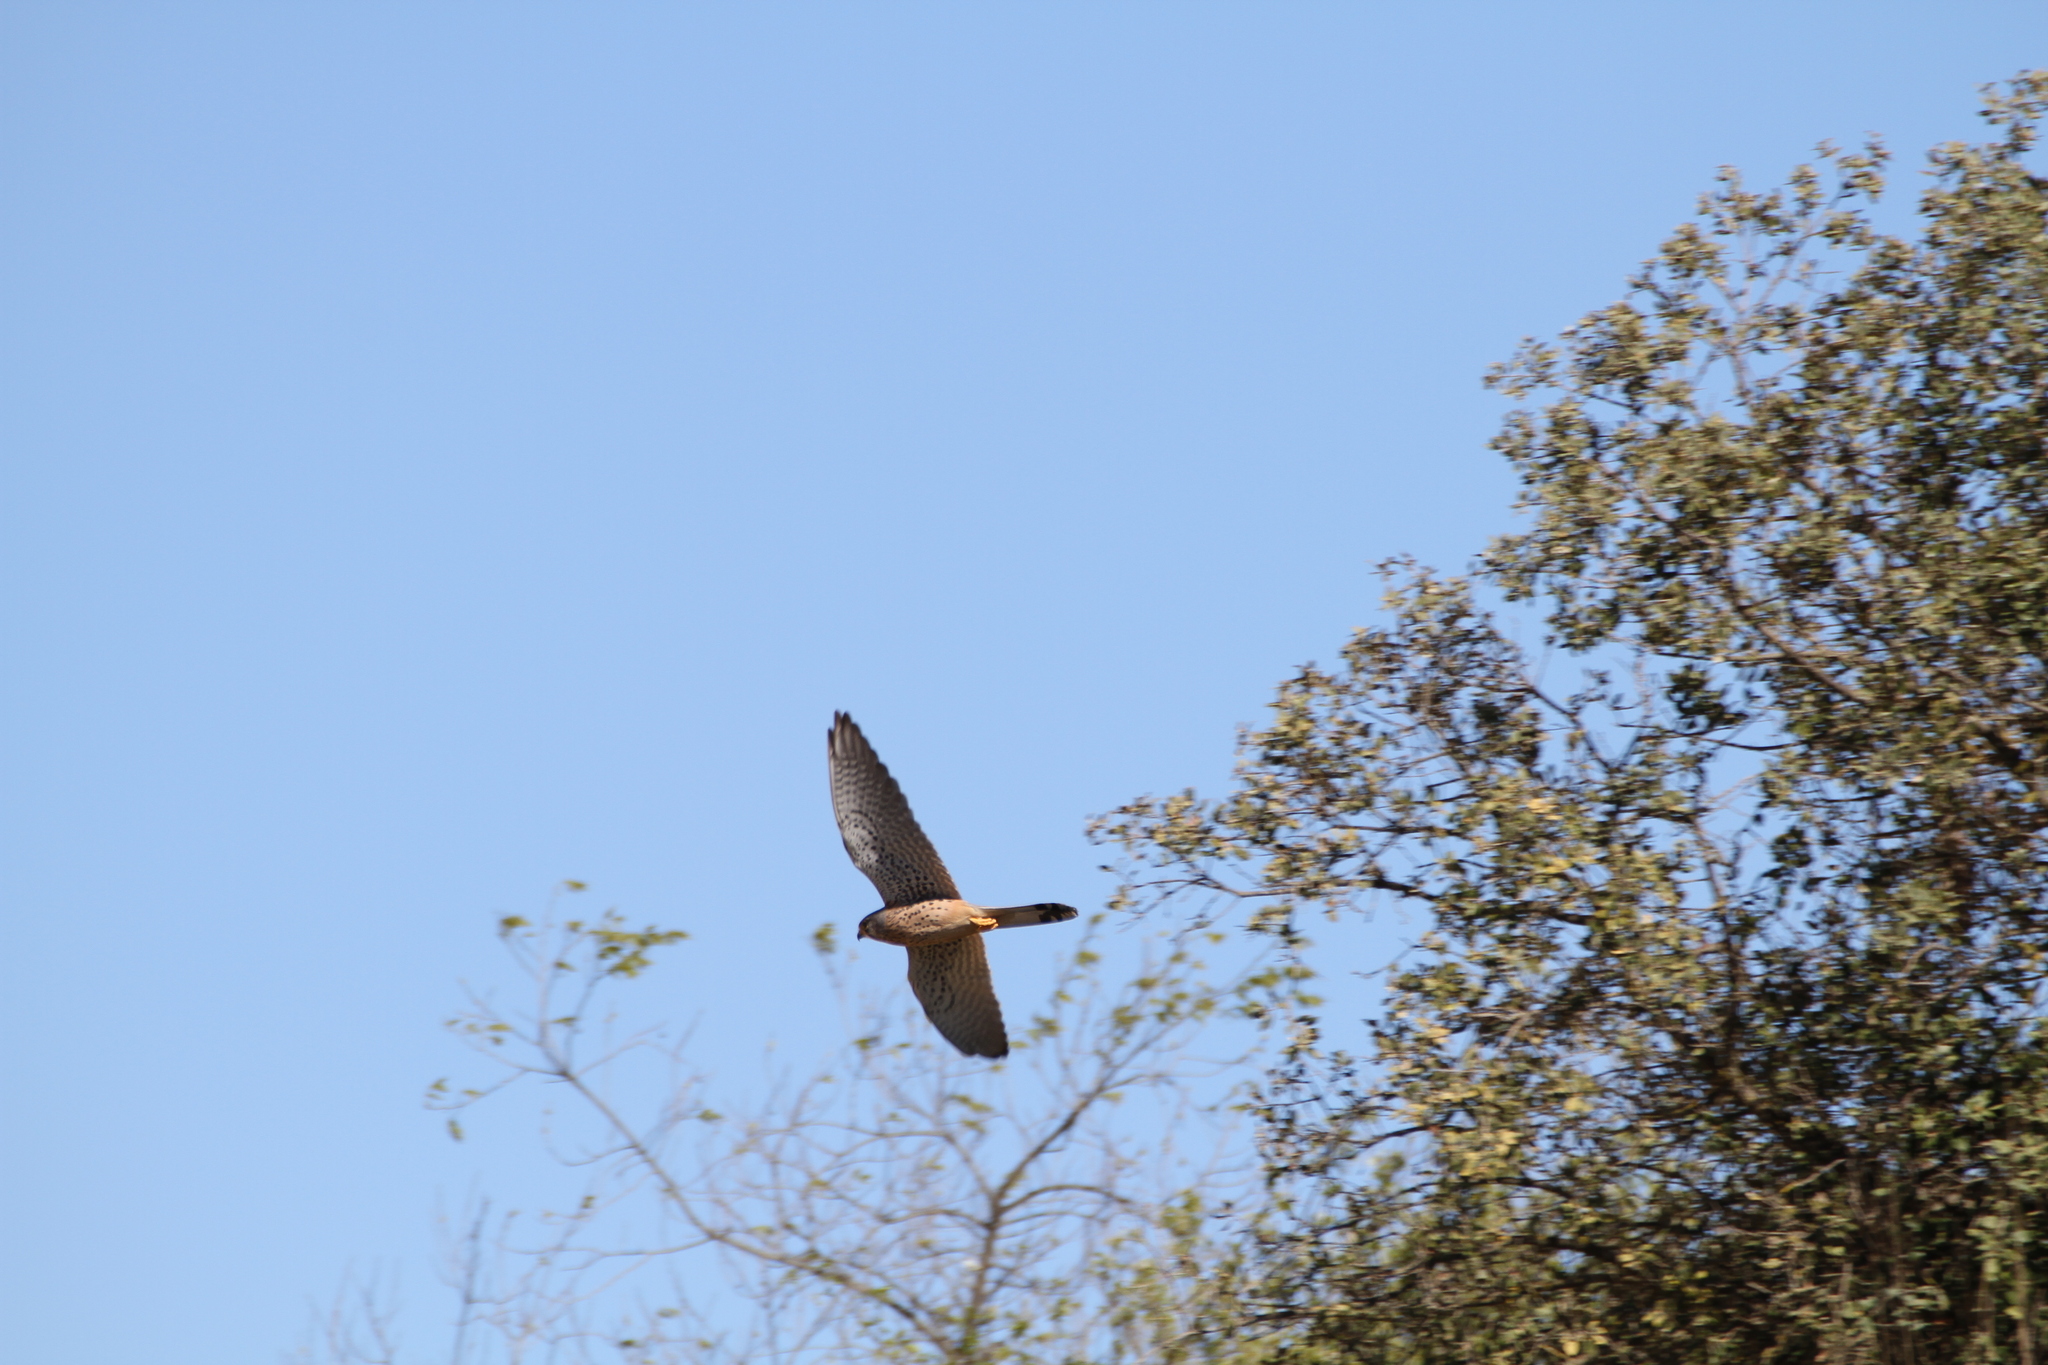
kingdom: Animalia
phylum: Chordata
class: Aves
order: Falconiformes
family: Falconidae
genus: Falco
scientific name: Falco tinnunculus
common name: Common kestrel
